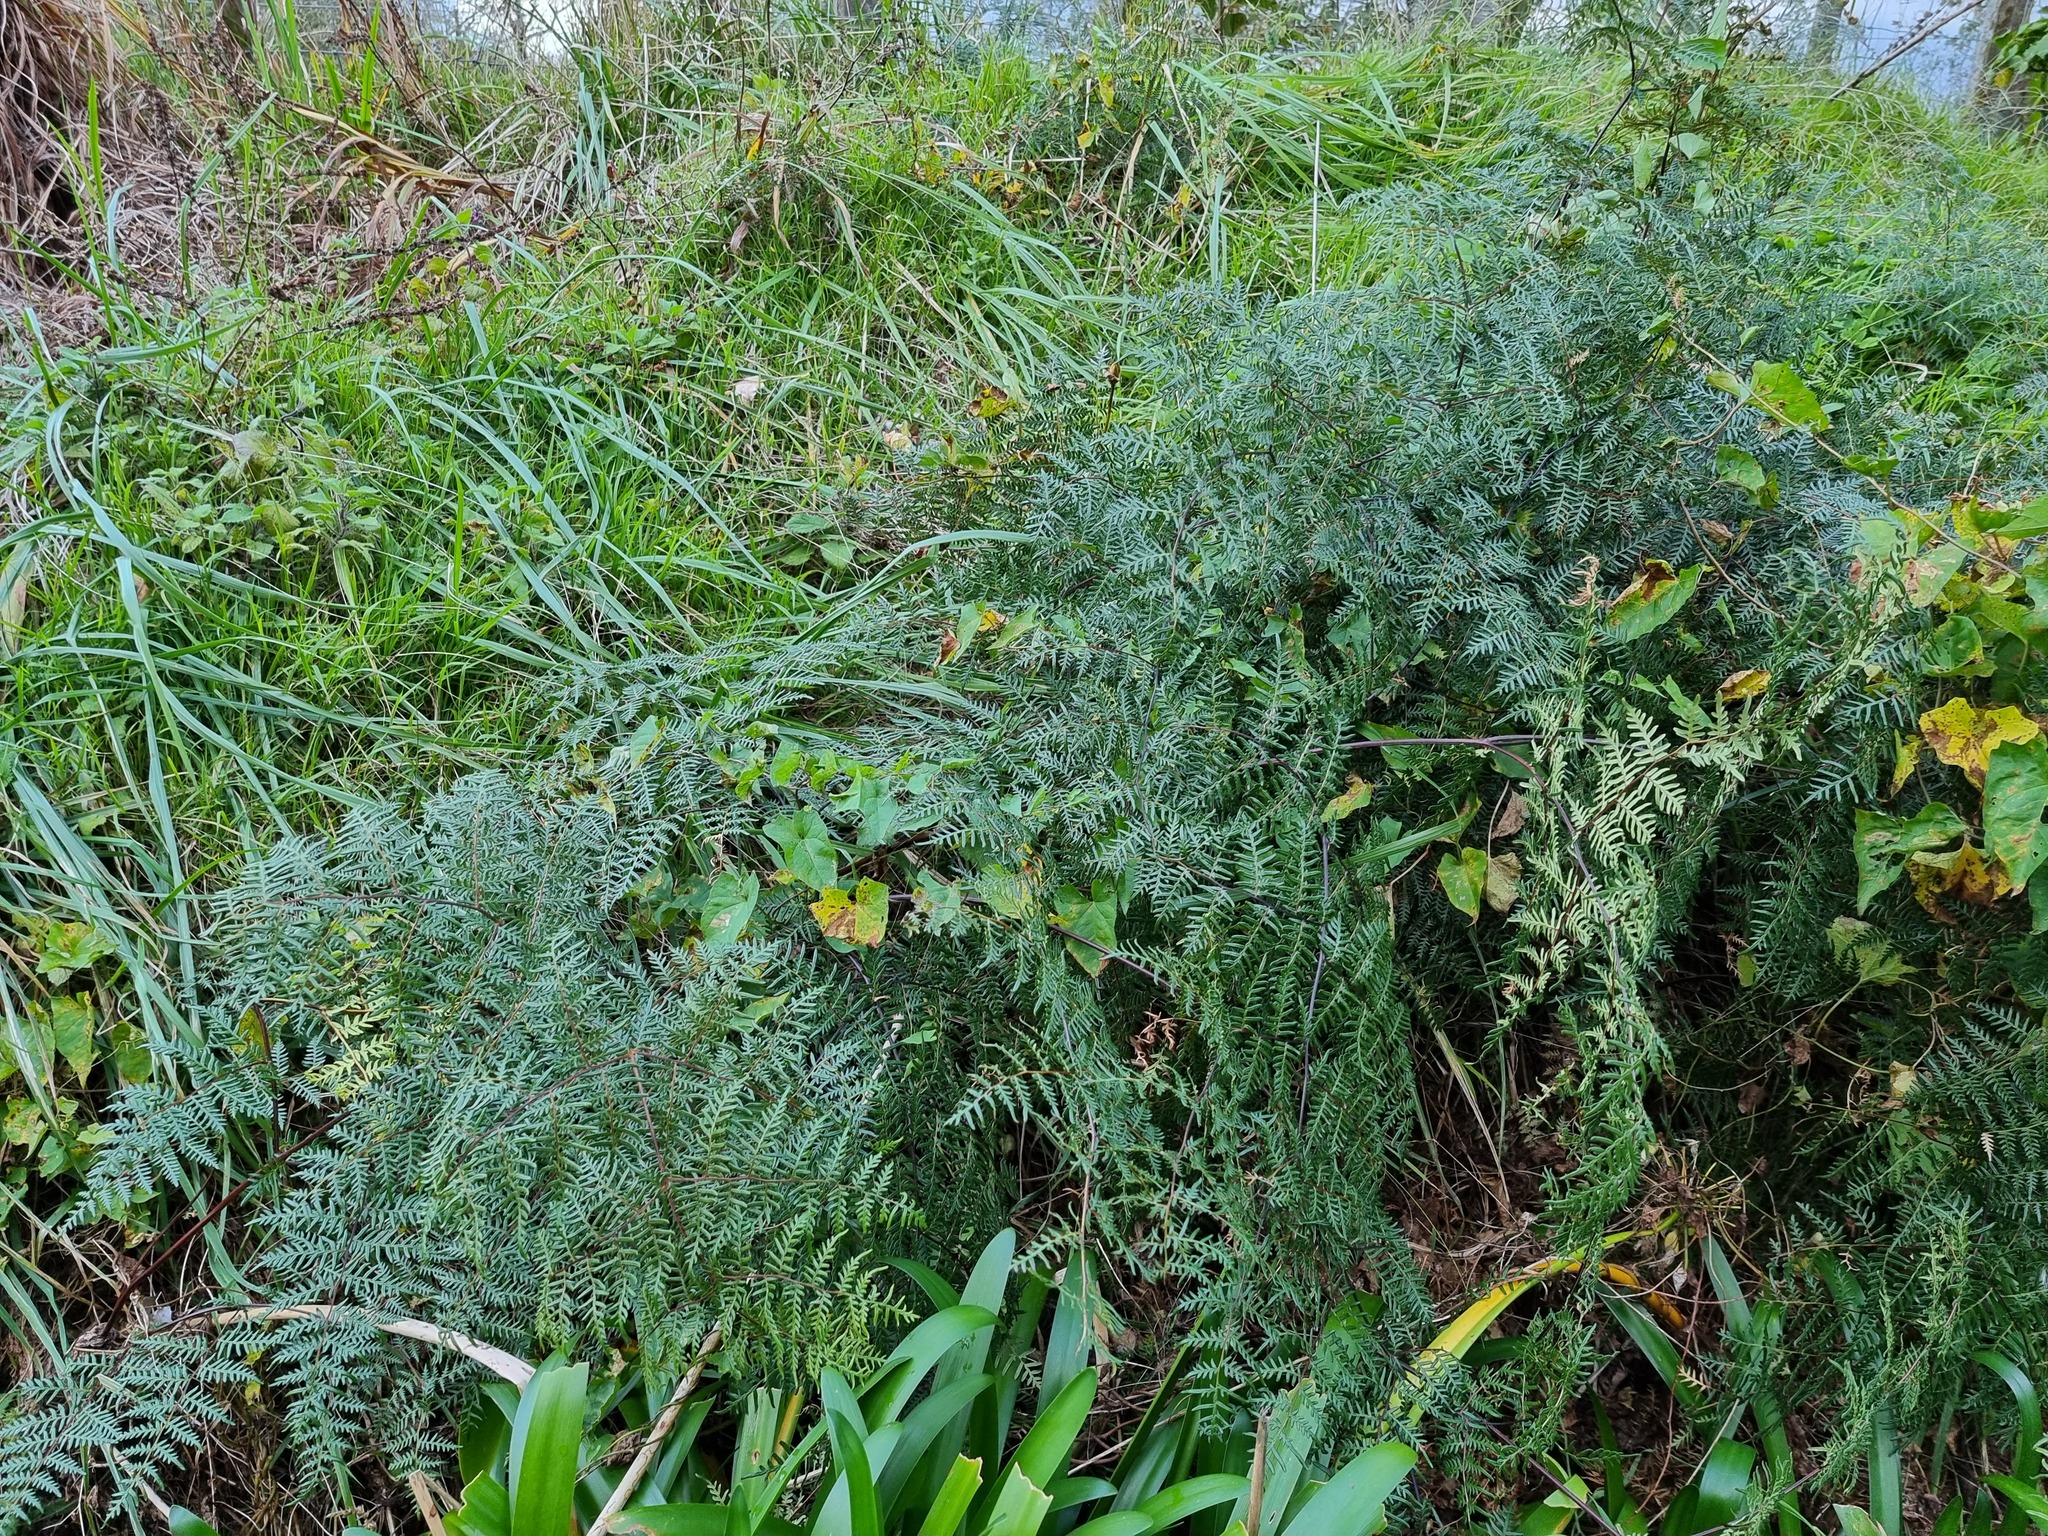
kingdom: Plantae
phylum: Tracheophyta
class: Polypodiopsida
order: Polypodiales
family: Dennstaedtiaceae
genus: Pteridium
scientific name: Pteridium esculentum
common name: Bracken fern
